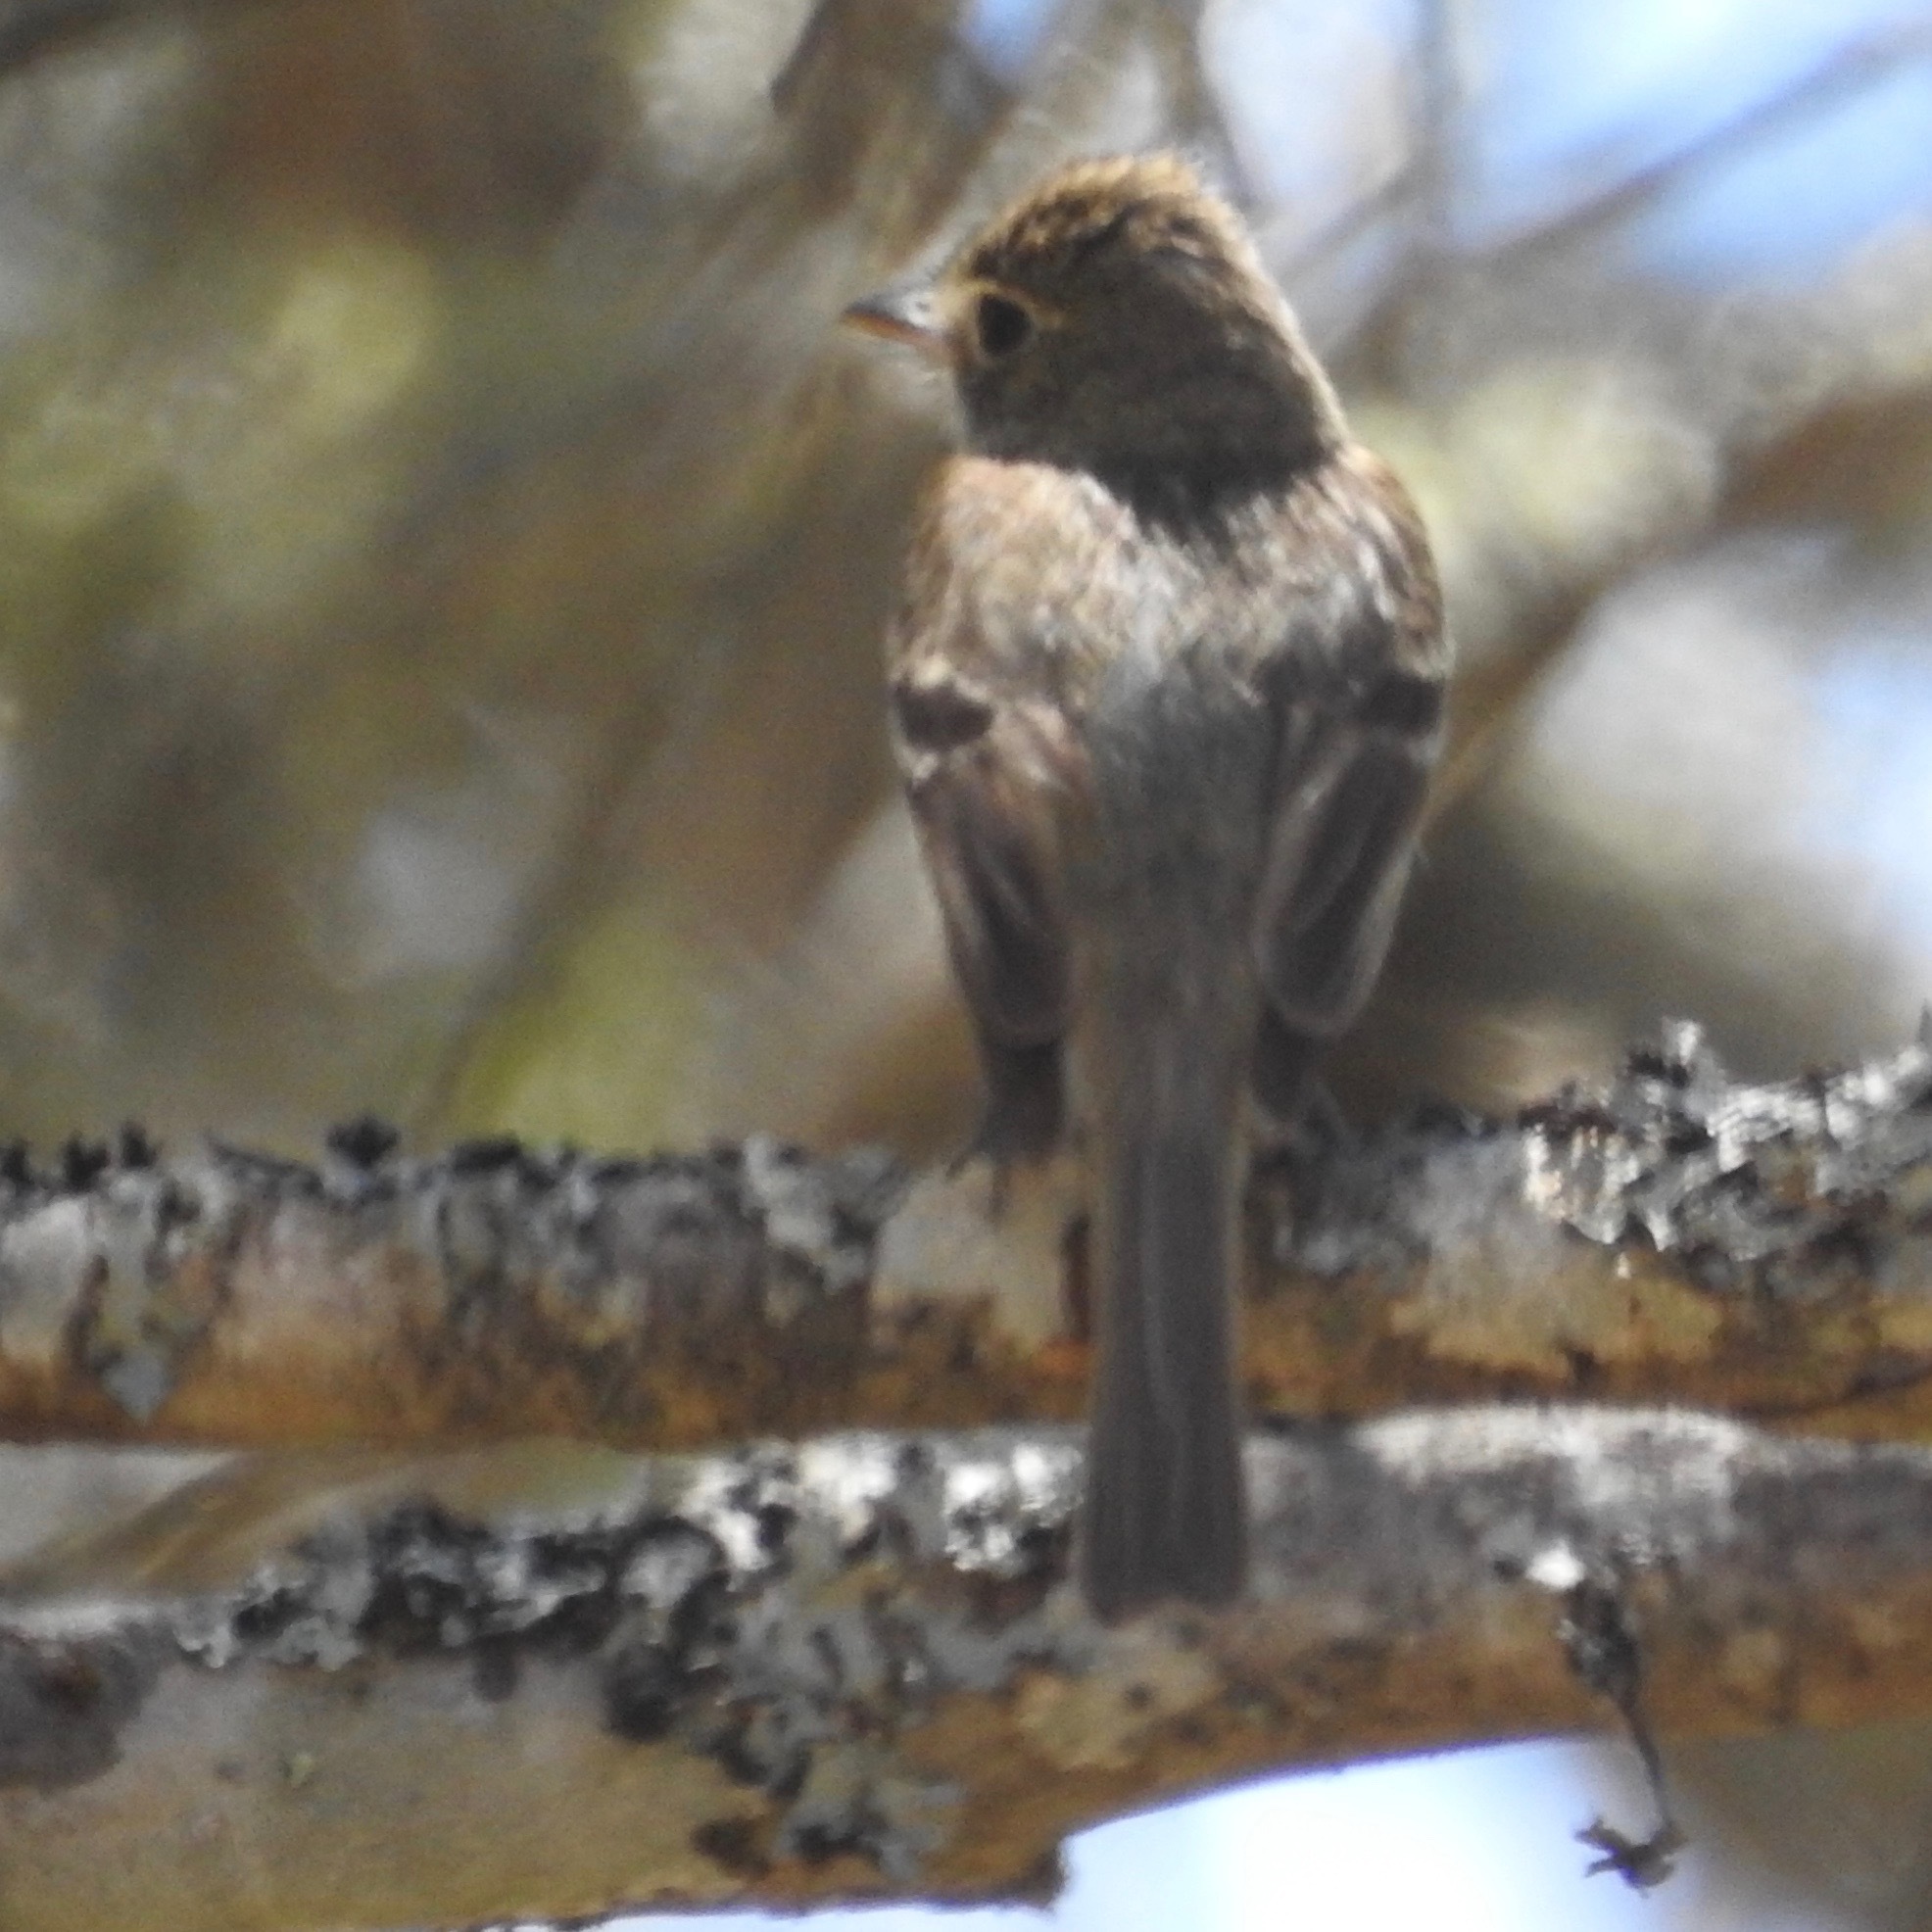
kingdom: Animalia
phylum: Chordata
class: Aves
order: Passeriformes
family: Tyrannidae
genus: Empidonax
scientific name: Empidonax difficilis
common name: Pacific-slope flycatcher
